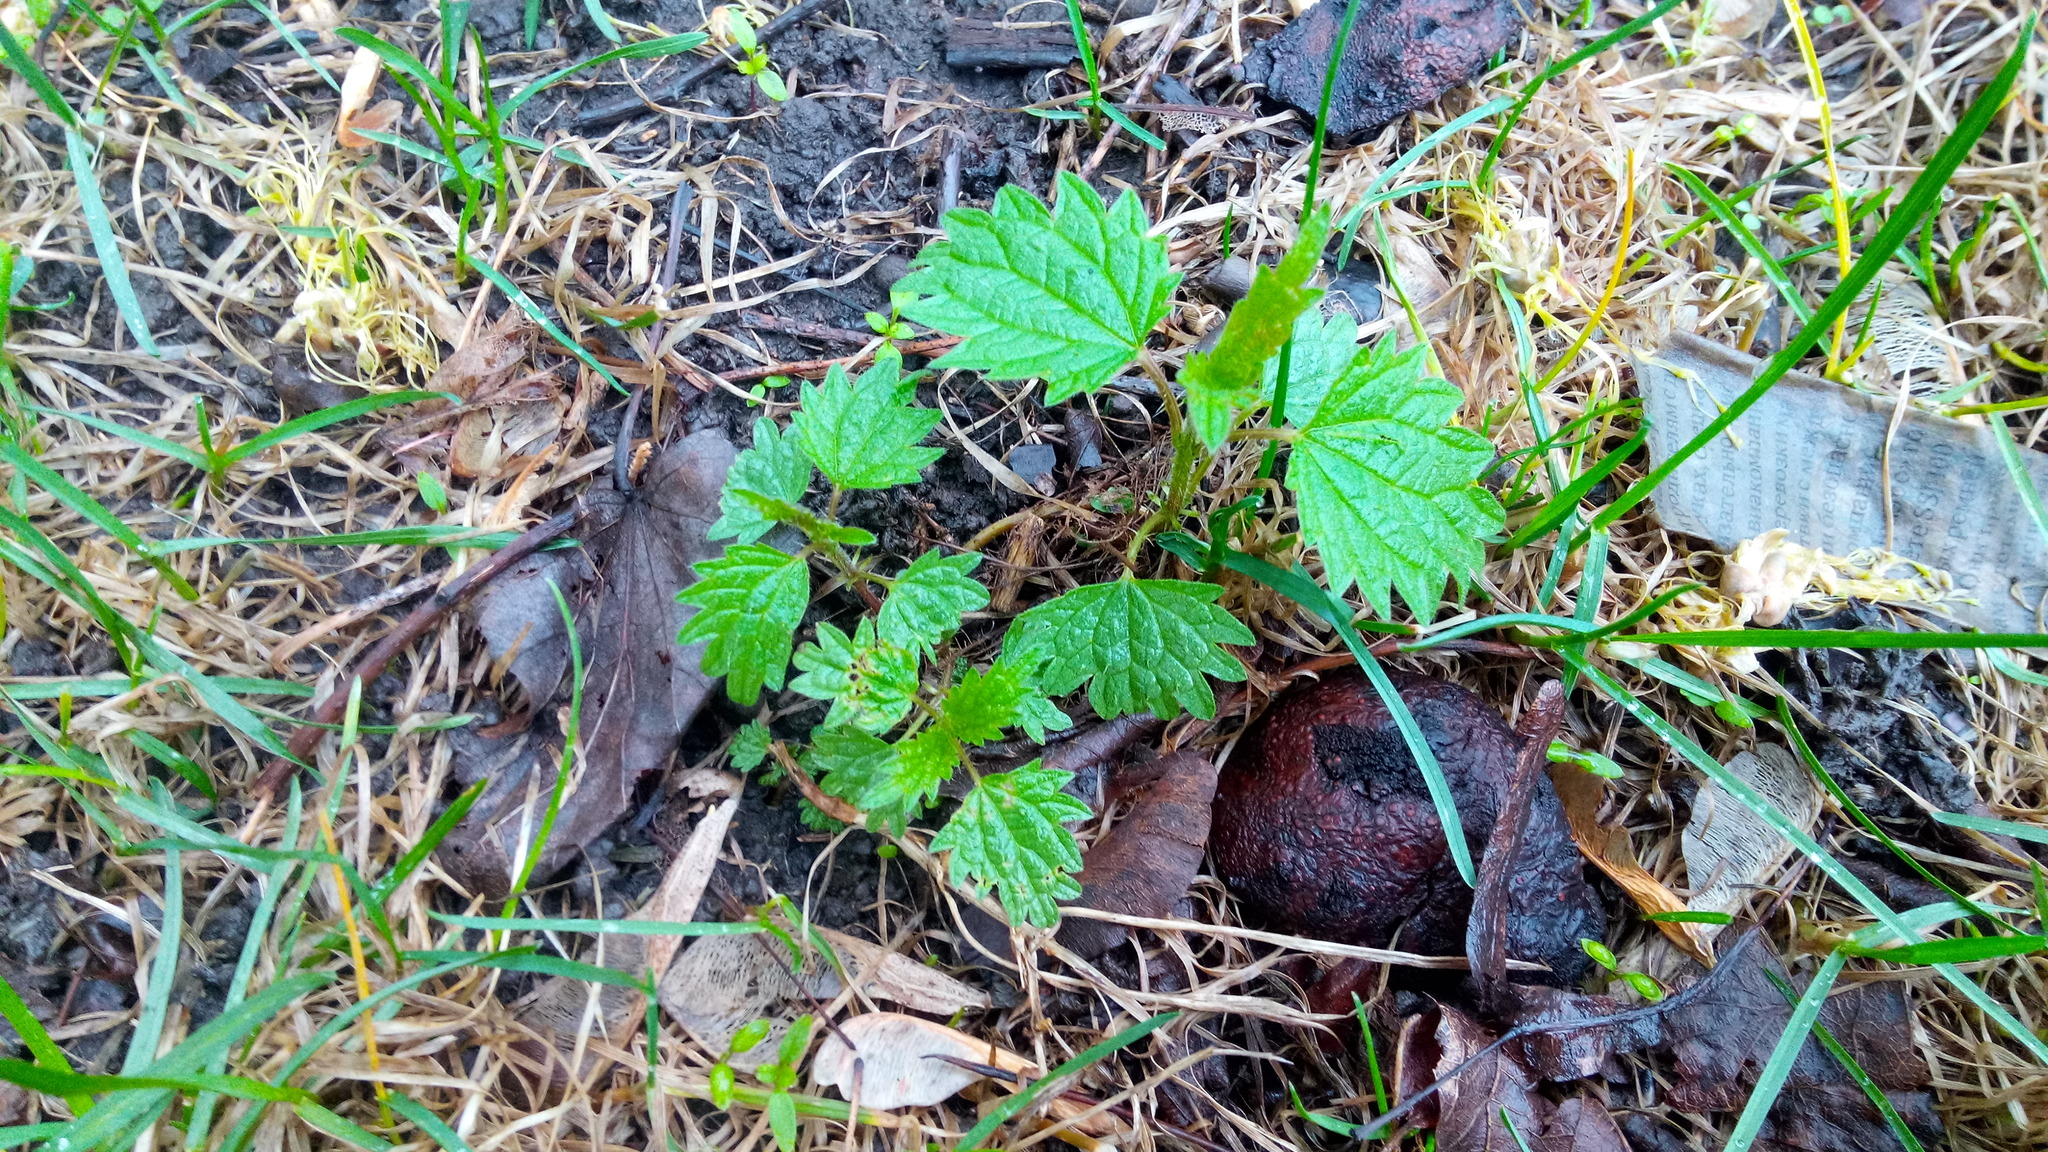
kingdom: Plantae
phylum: Tracheophyta
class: Magnoliopsida
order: Rosales
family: Urticaceae
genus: Urtica
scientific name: Urtica dioica
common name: Common nettle
